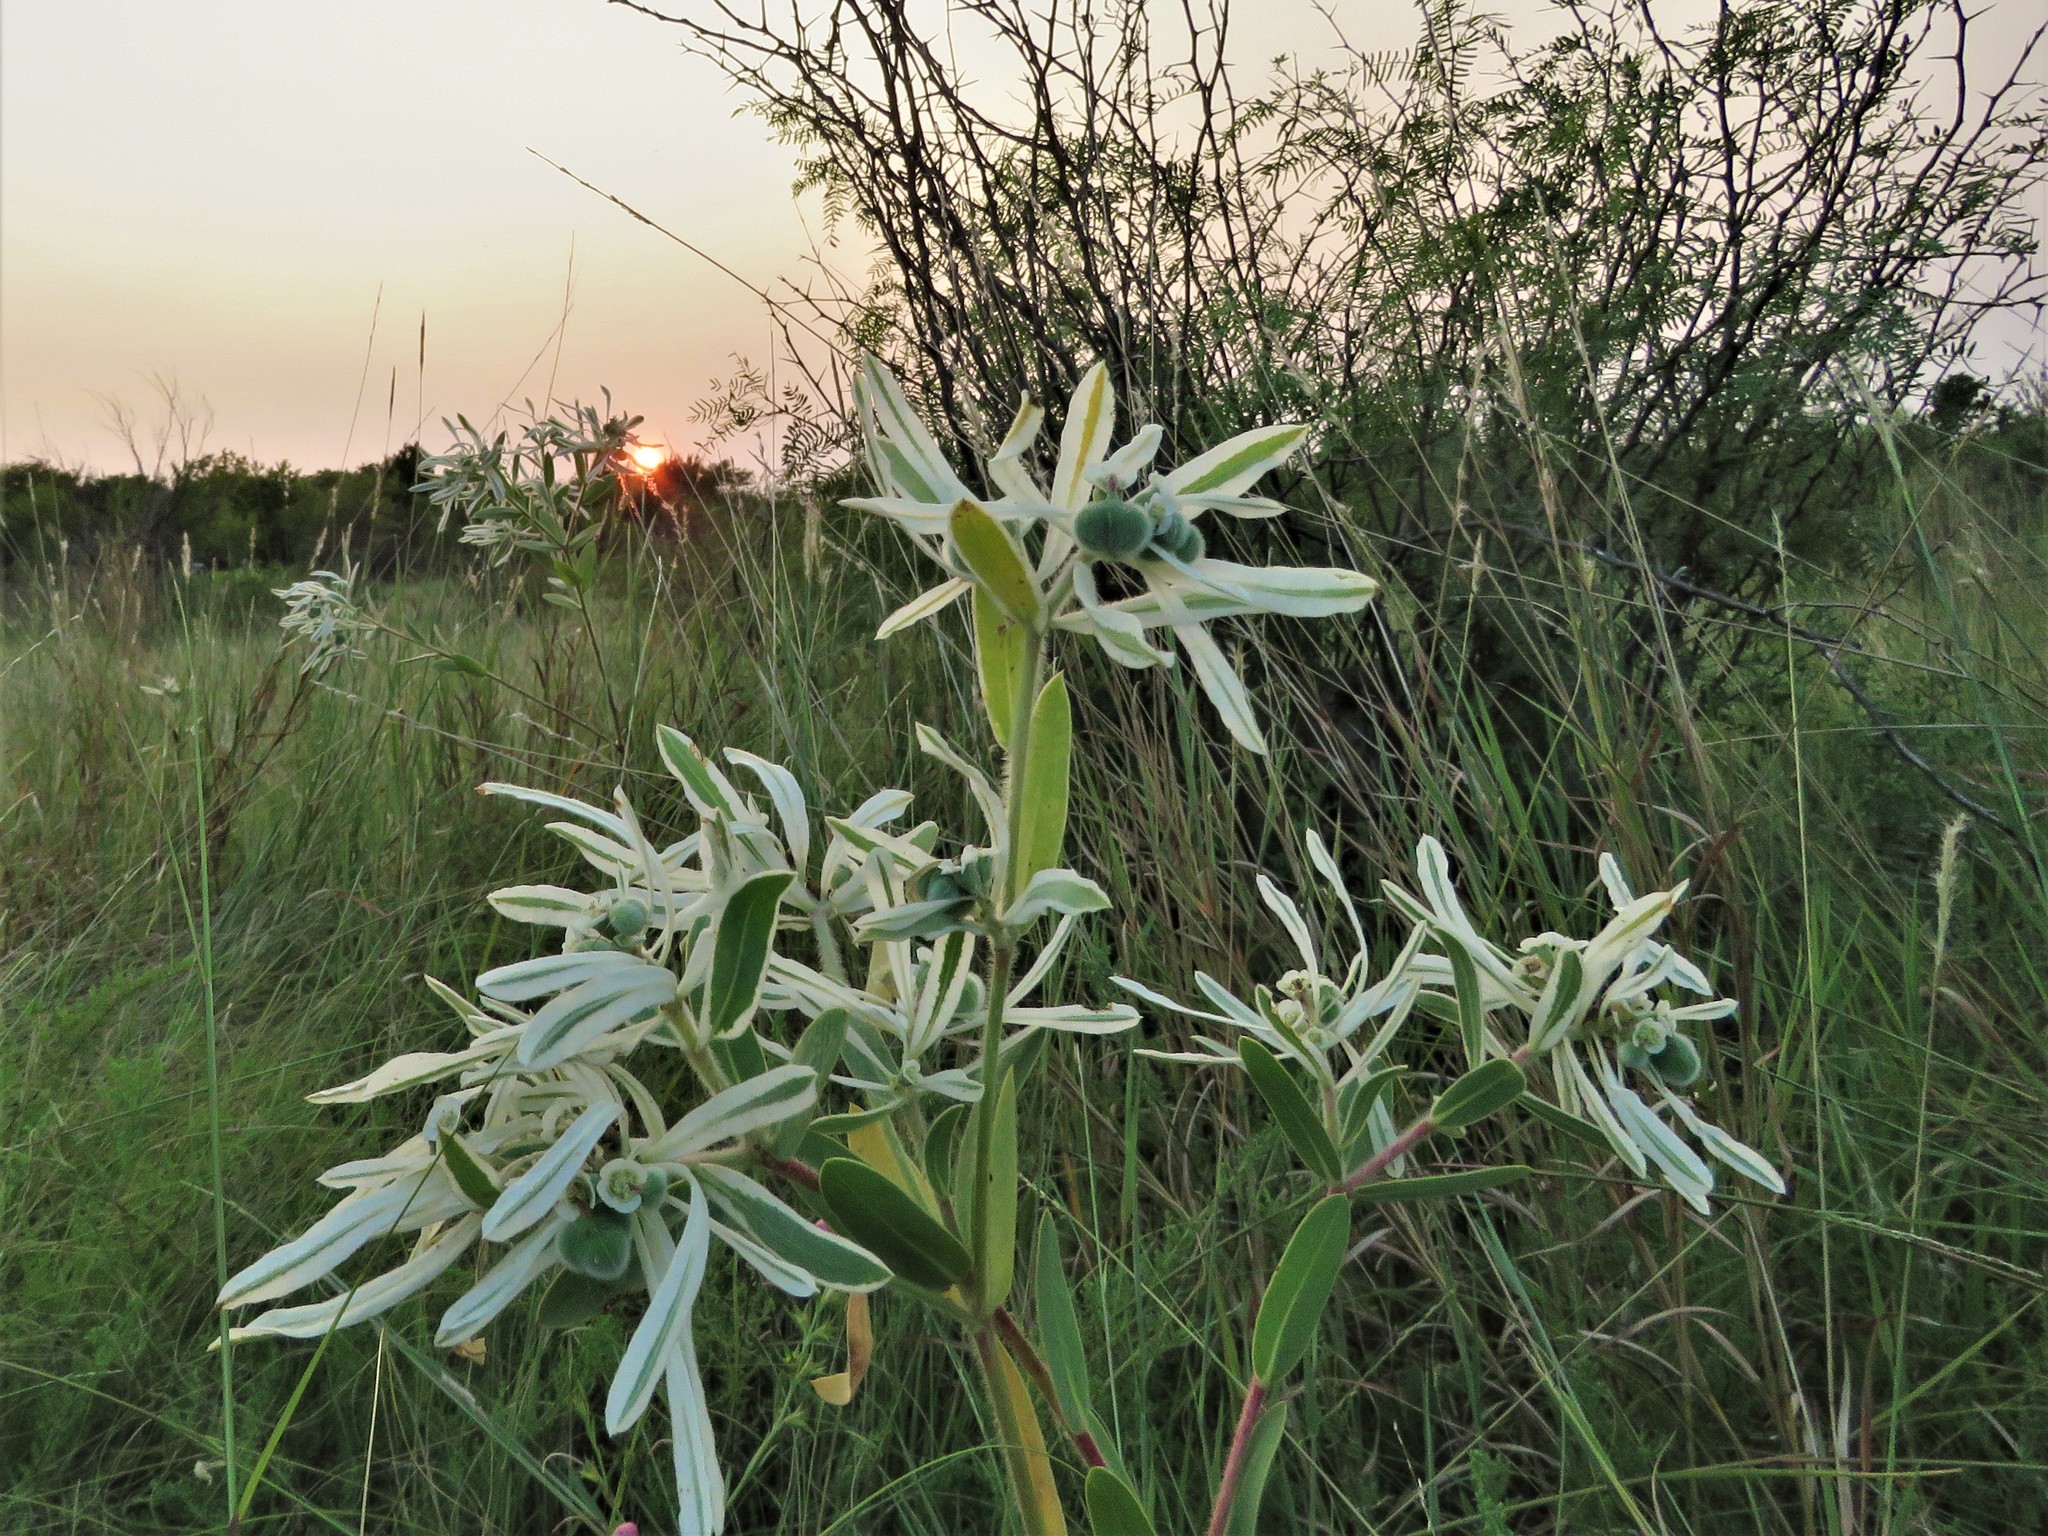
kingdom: Plantae
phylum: Tracheophyta
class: Magnoliopsida
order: Malpighiales
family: Euphorbiaceae
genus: Euphorbia
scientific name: Euphorbia bicolor
